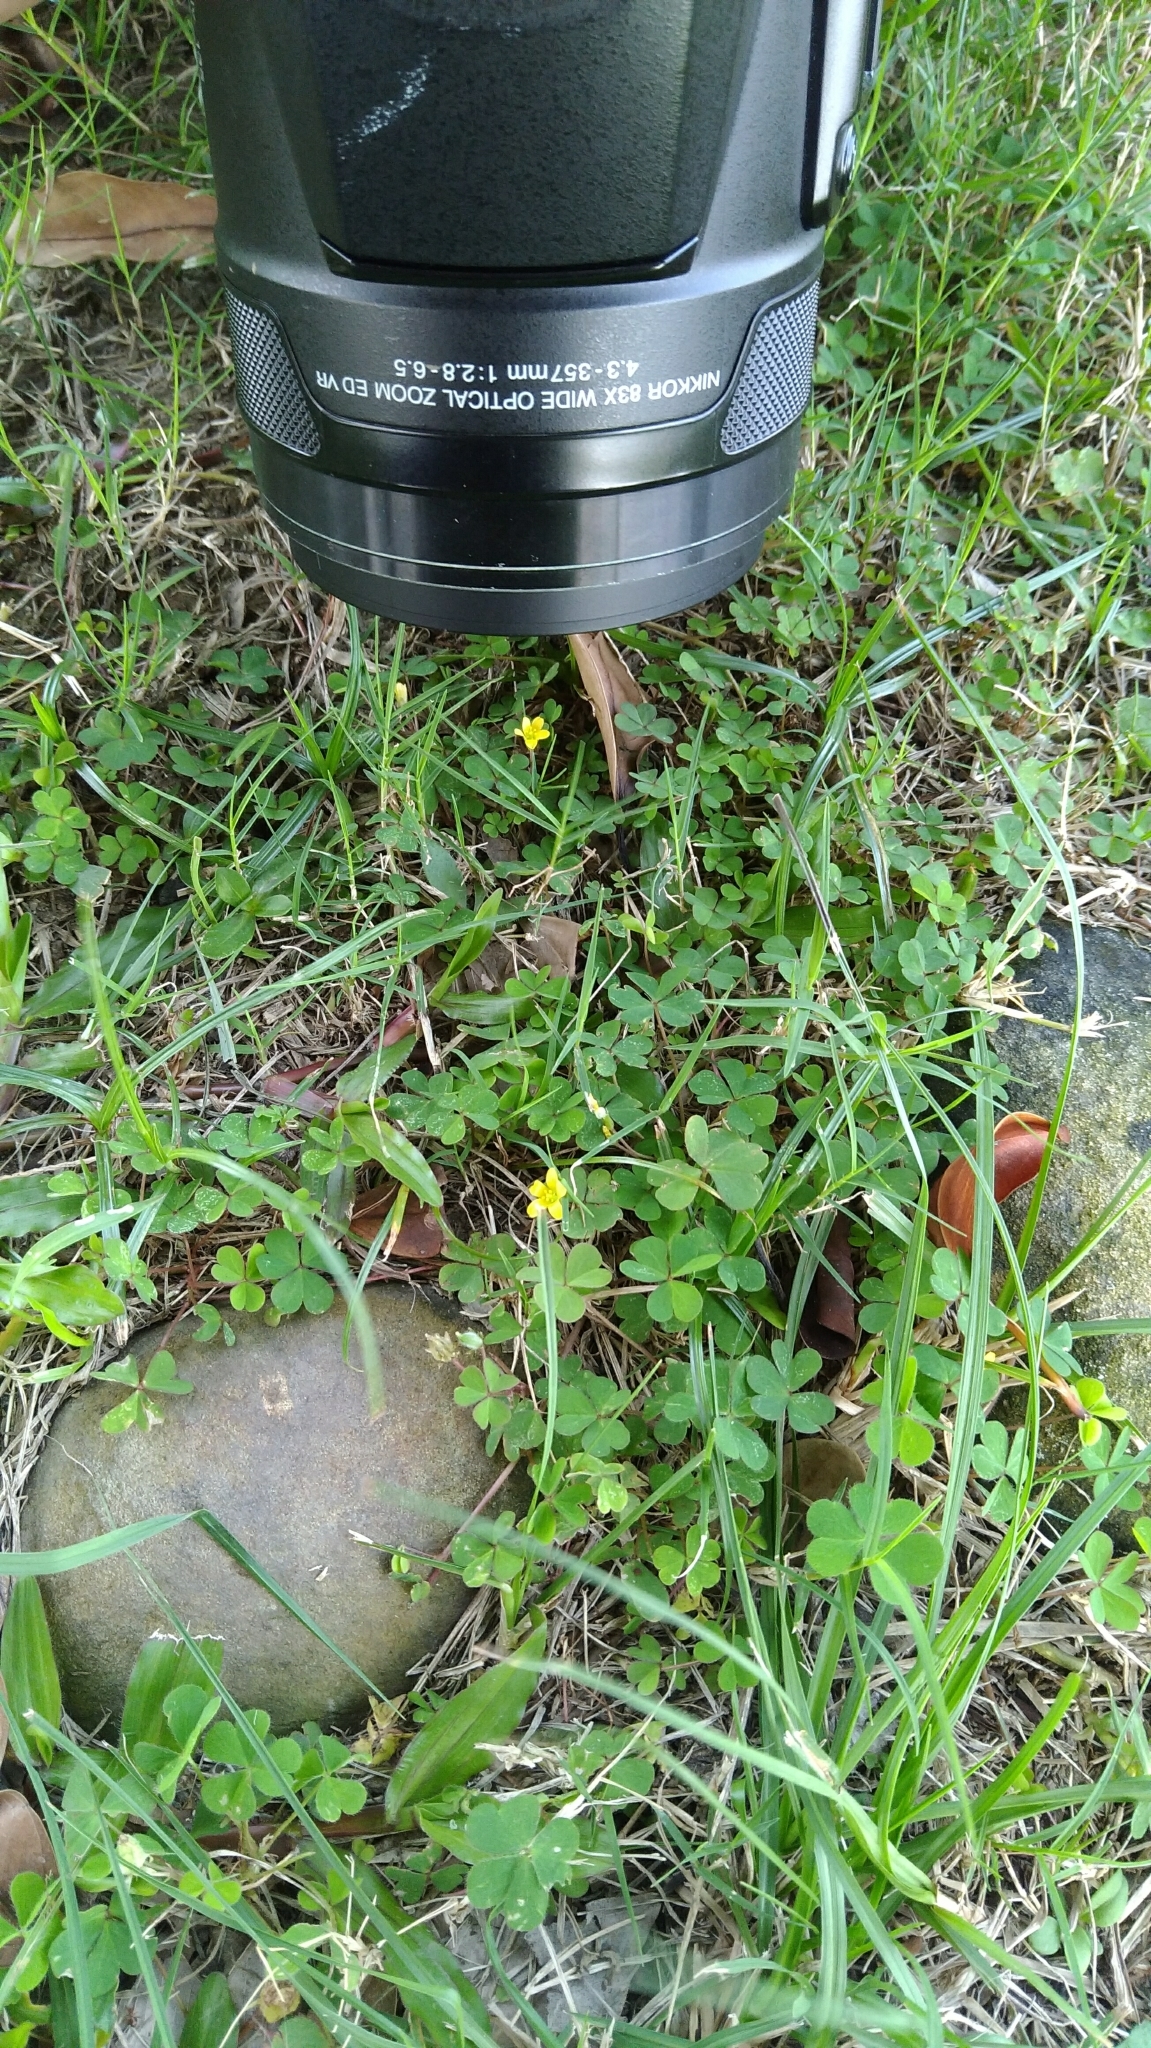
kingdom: Plantae
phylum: Tracheophyta
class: Magnoliopsida
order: Oxalidales
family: Oxalidaceae
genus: Oxalis
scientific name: Oxalis corniculata
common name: Procumbent yellow-sorrel
